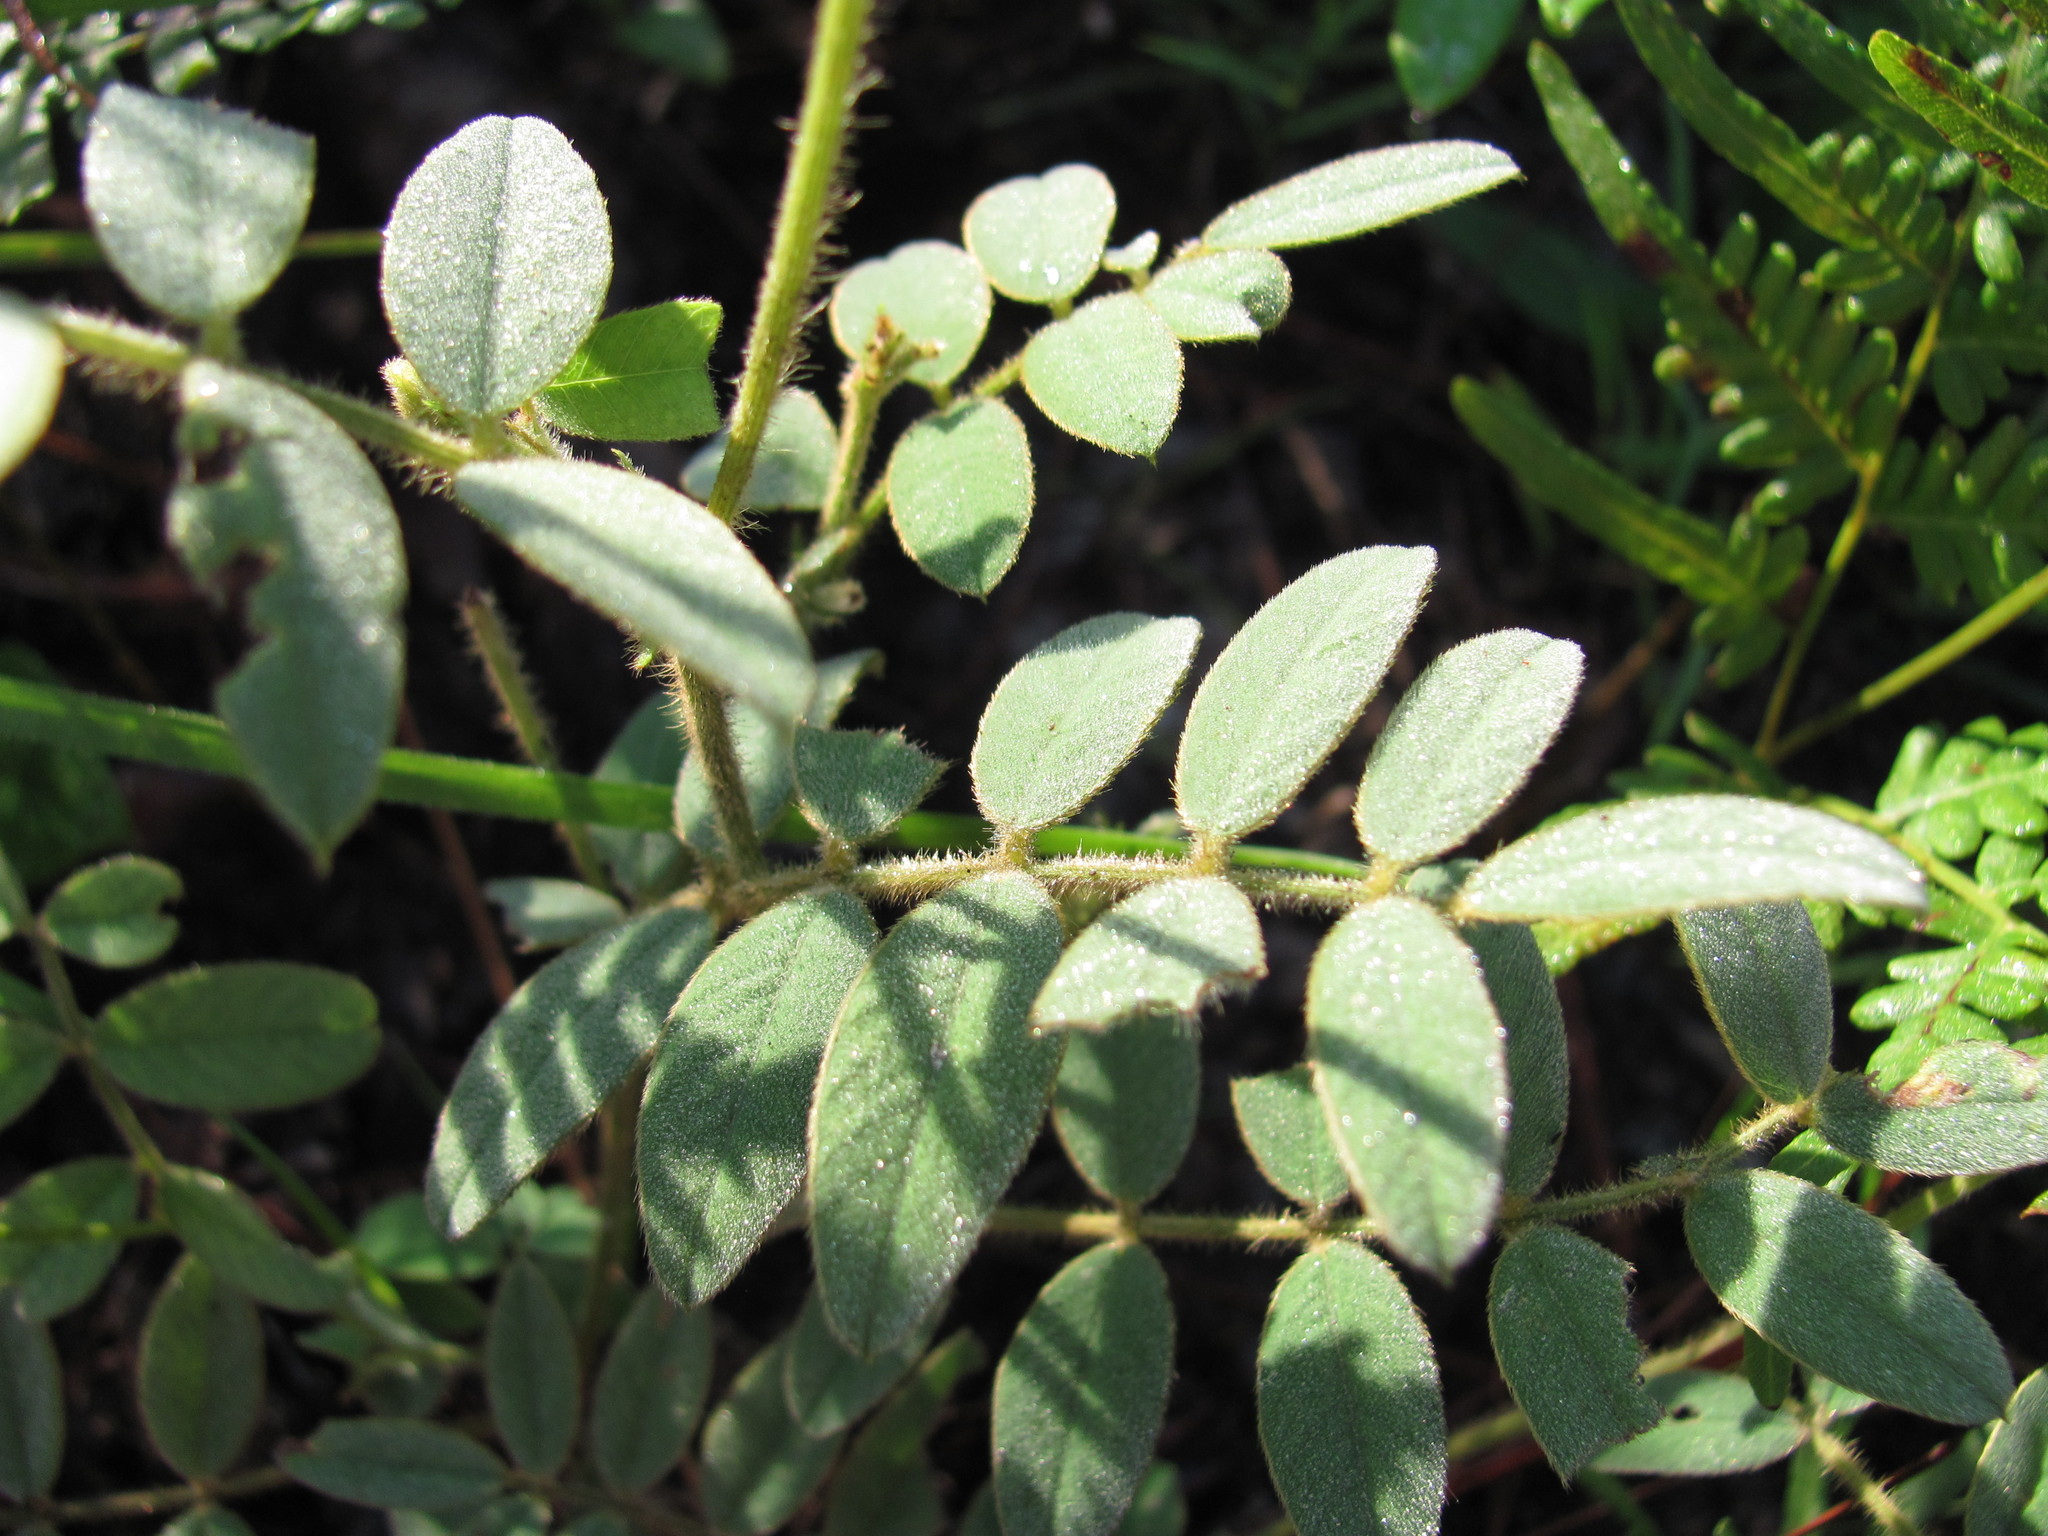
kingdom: Plantae
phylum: Tracheophyta
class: Magnoliopsida
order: Fabales
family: Fabaceae
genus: Tephrosia
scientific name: Tephrosia spicata
